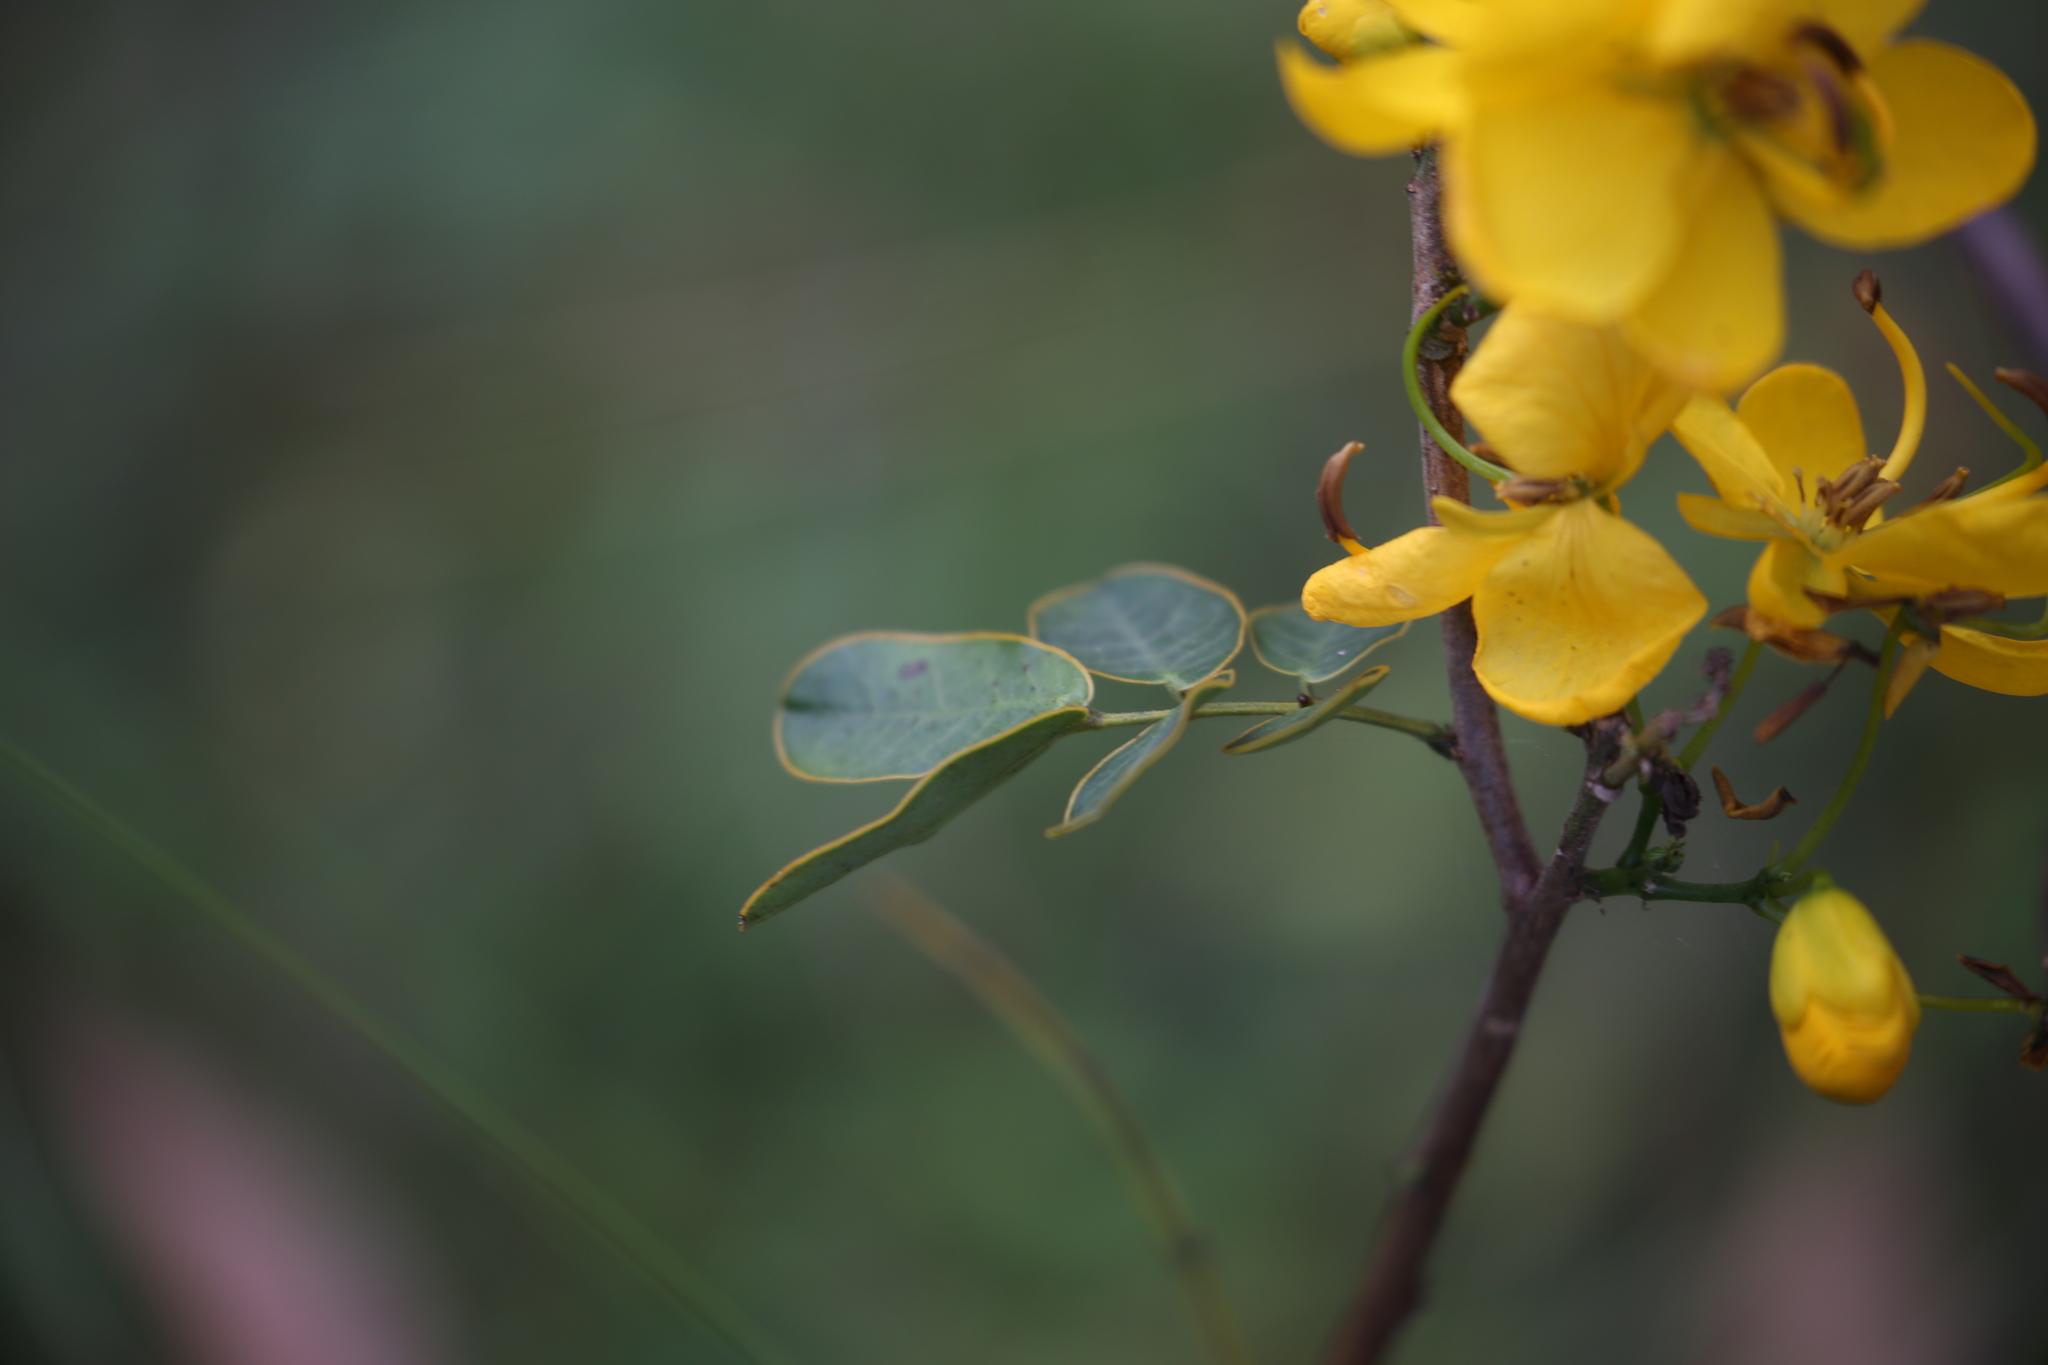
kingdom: Plantae
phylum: Tracheophyta
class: Magnoliopsida
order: Fabales
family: Fabaceae
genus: Senna
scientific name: Senna pendula
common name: Easter cassia
